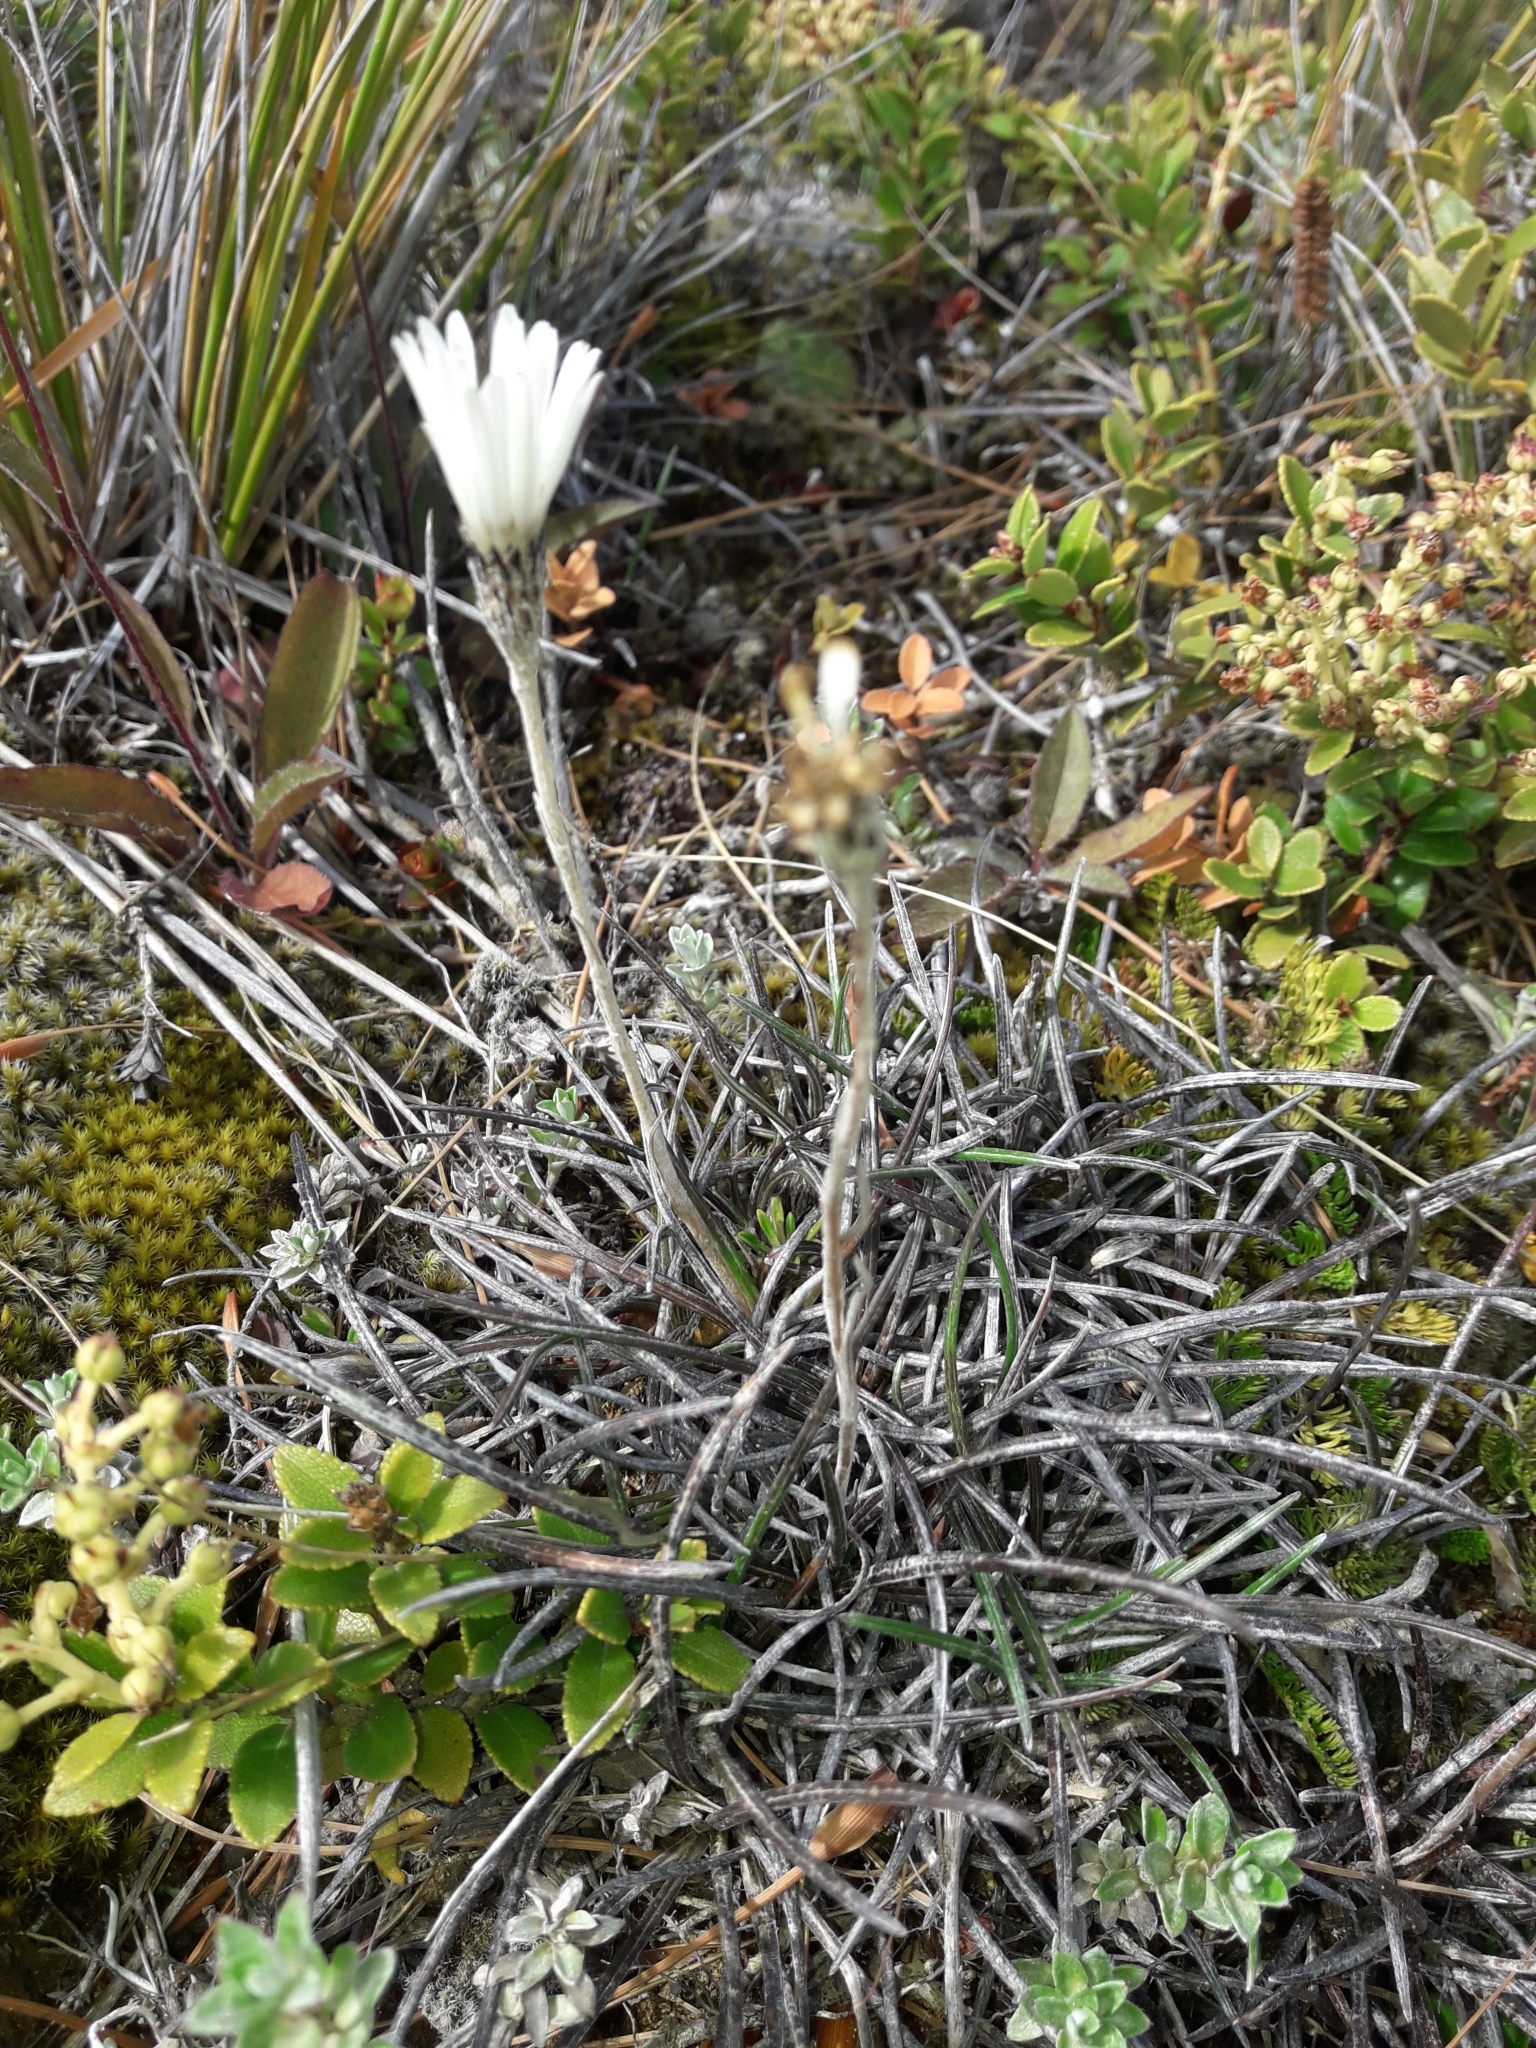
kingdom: Plantae
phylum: Tracheophyta
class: Magnoliopsida
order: Asterales
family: Asteraceae
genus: Celmisia
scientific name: Celmisia gracilenta
